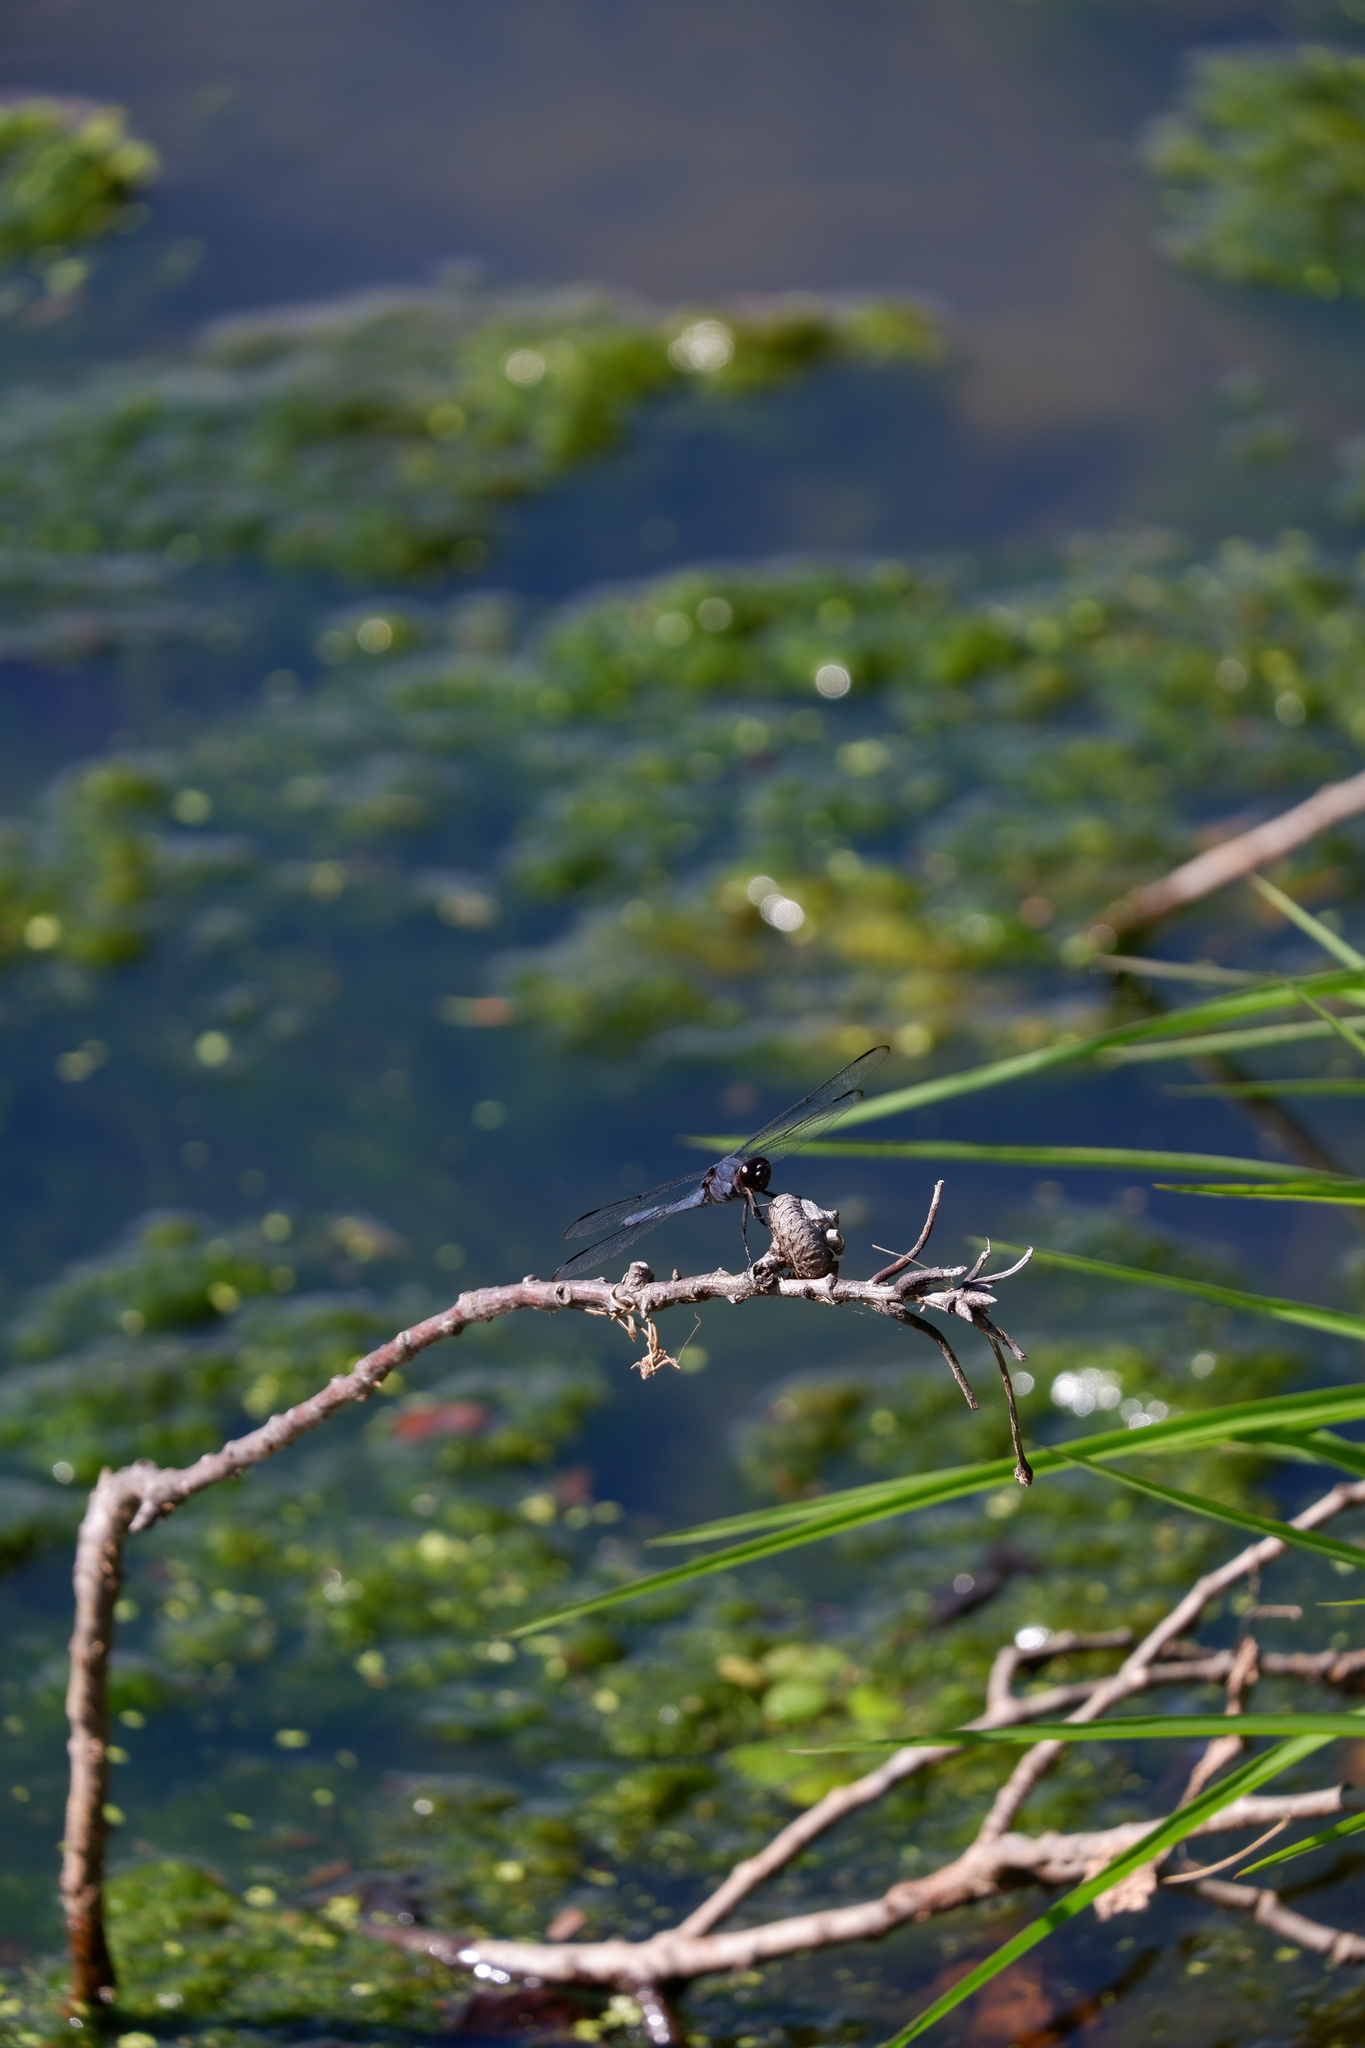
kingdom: Animalia
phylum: Arthropoda
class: Insecta
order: Odonata
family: Libellulidae
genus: Libellula
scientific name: Libellula incesta
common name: Slaty skimmer
